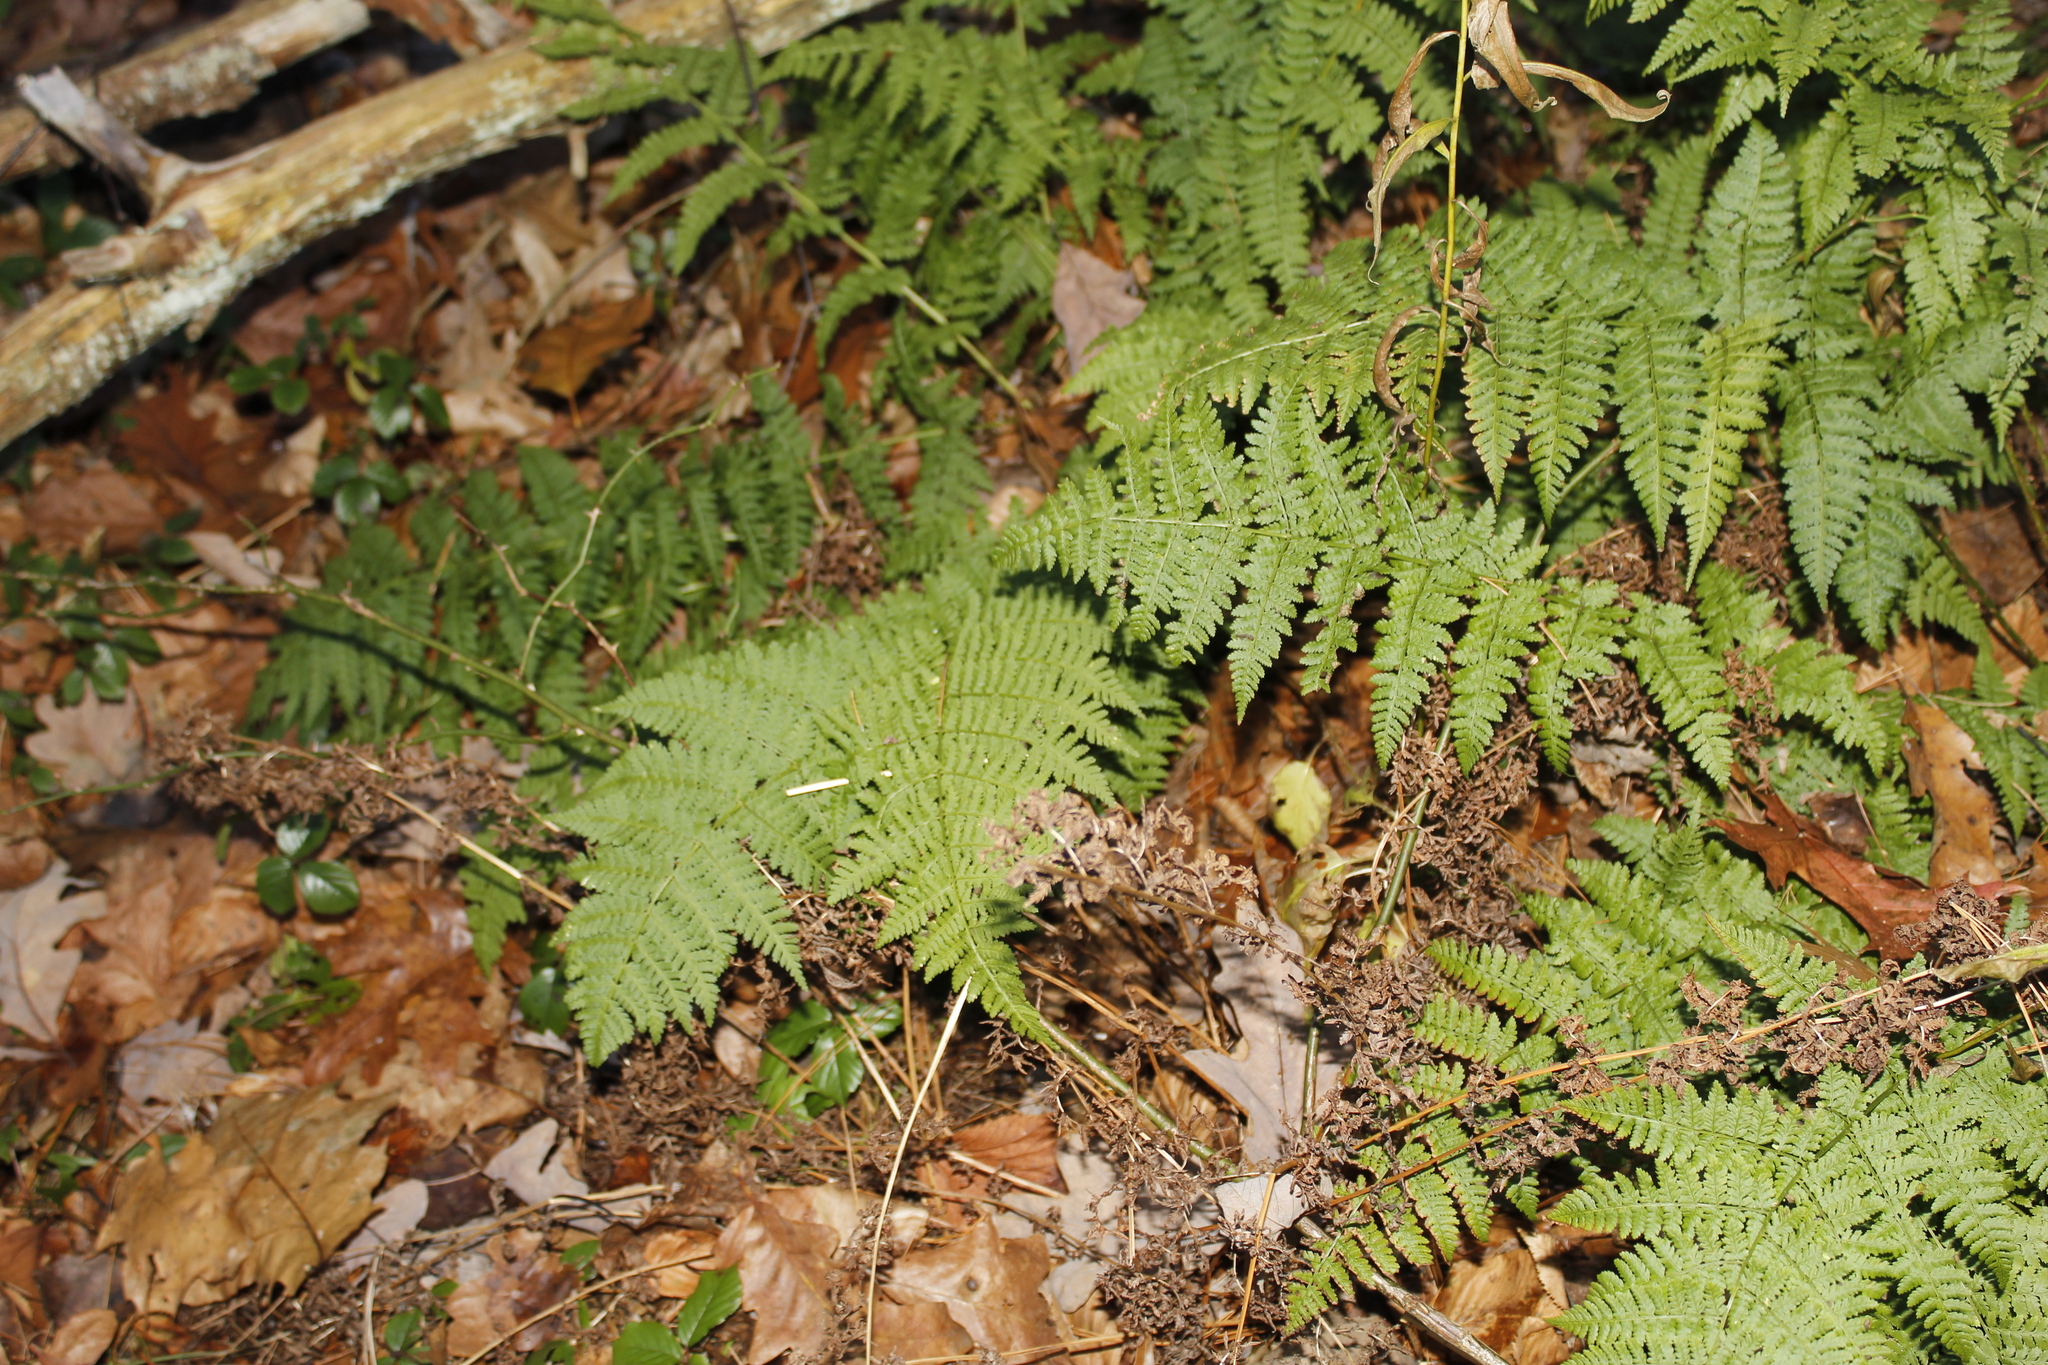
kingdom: Plantae
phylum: Tracheophyta
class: Polypodiopsida
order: Polypodiales
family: Dryopteridaceae
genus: Dryopteris
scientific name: Dryopteris intermedia
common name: Evergreen wood fern
